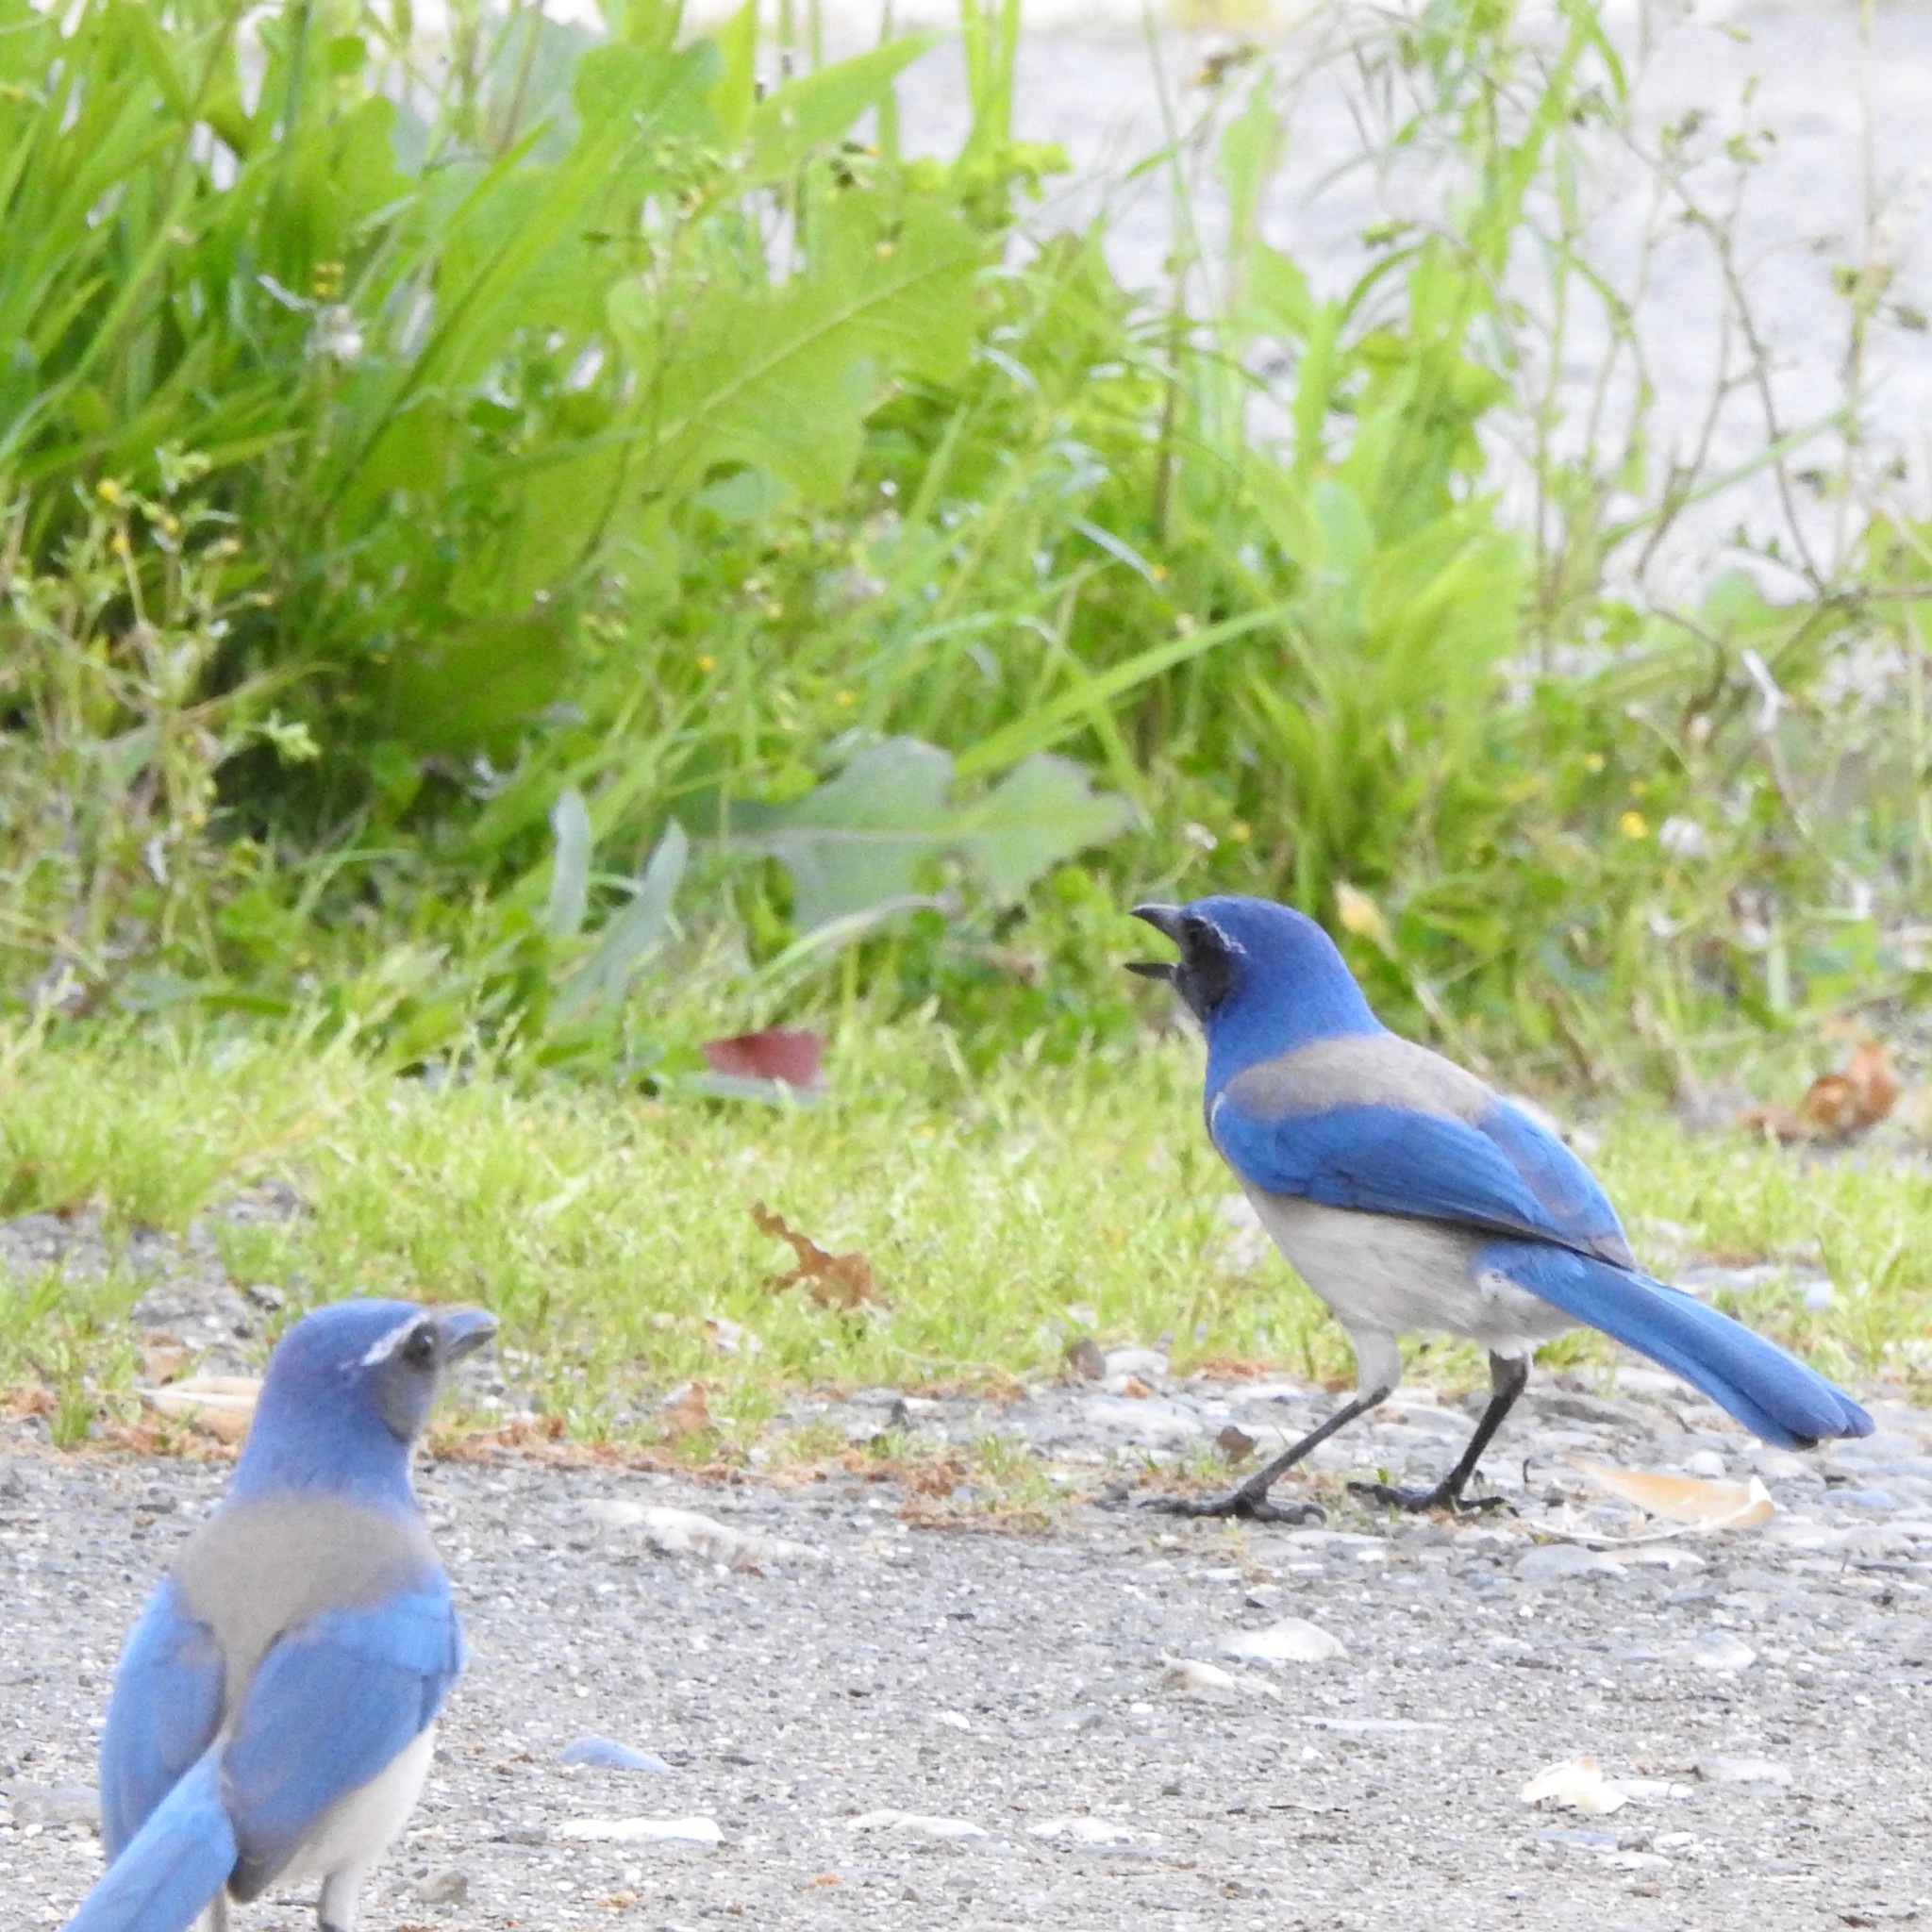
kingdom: Animalia
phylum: Chordata
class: Aves
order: Passeriformes
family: Corvidae
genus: Aphelocoma
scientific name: Aphelocoma californica
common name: California scrub-jay
